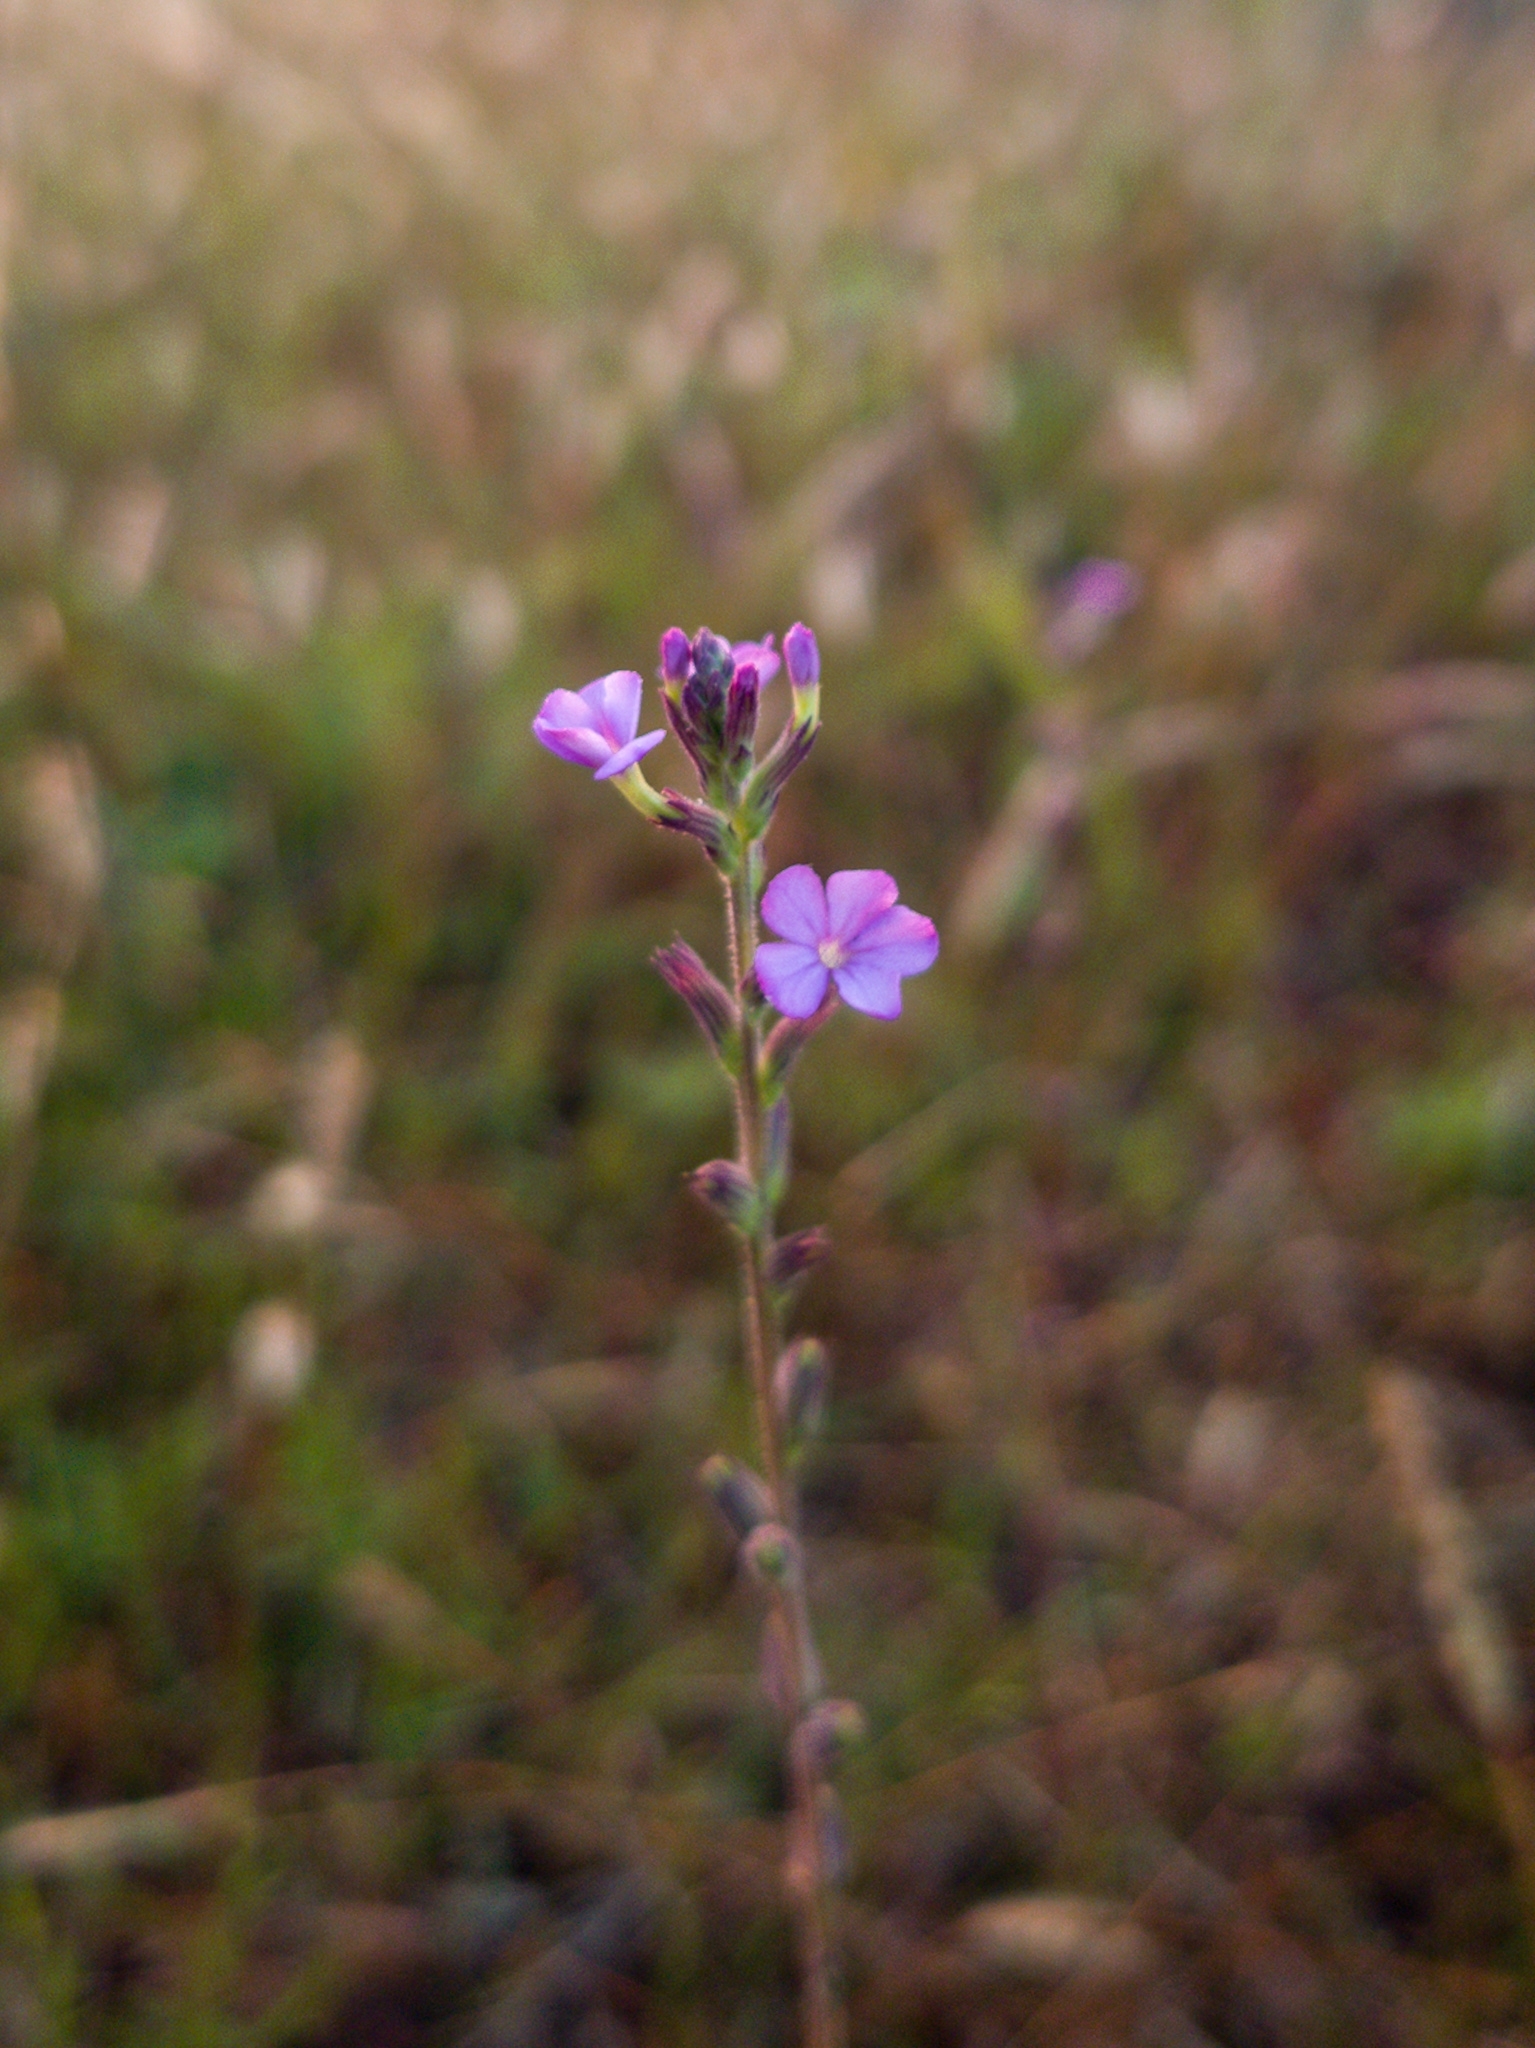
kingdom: Plantae
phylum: Tracheophyta
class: Magnoliopsida
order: Lamiales
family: Orobanchaceae
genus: Buchnera
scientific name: Buchnera hispida
